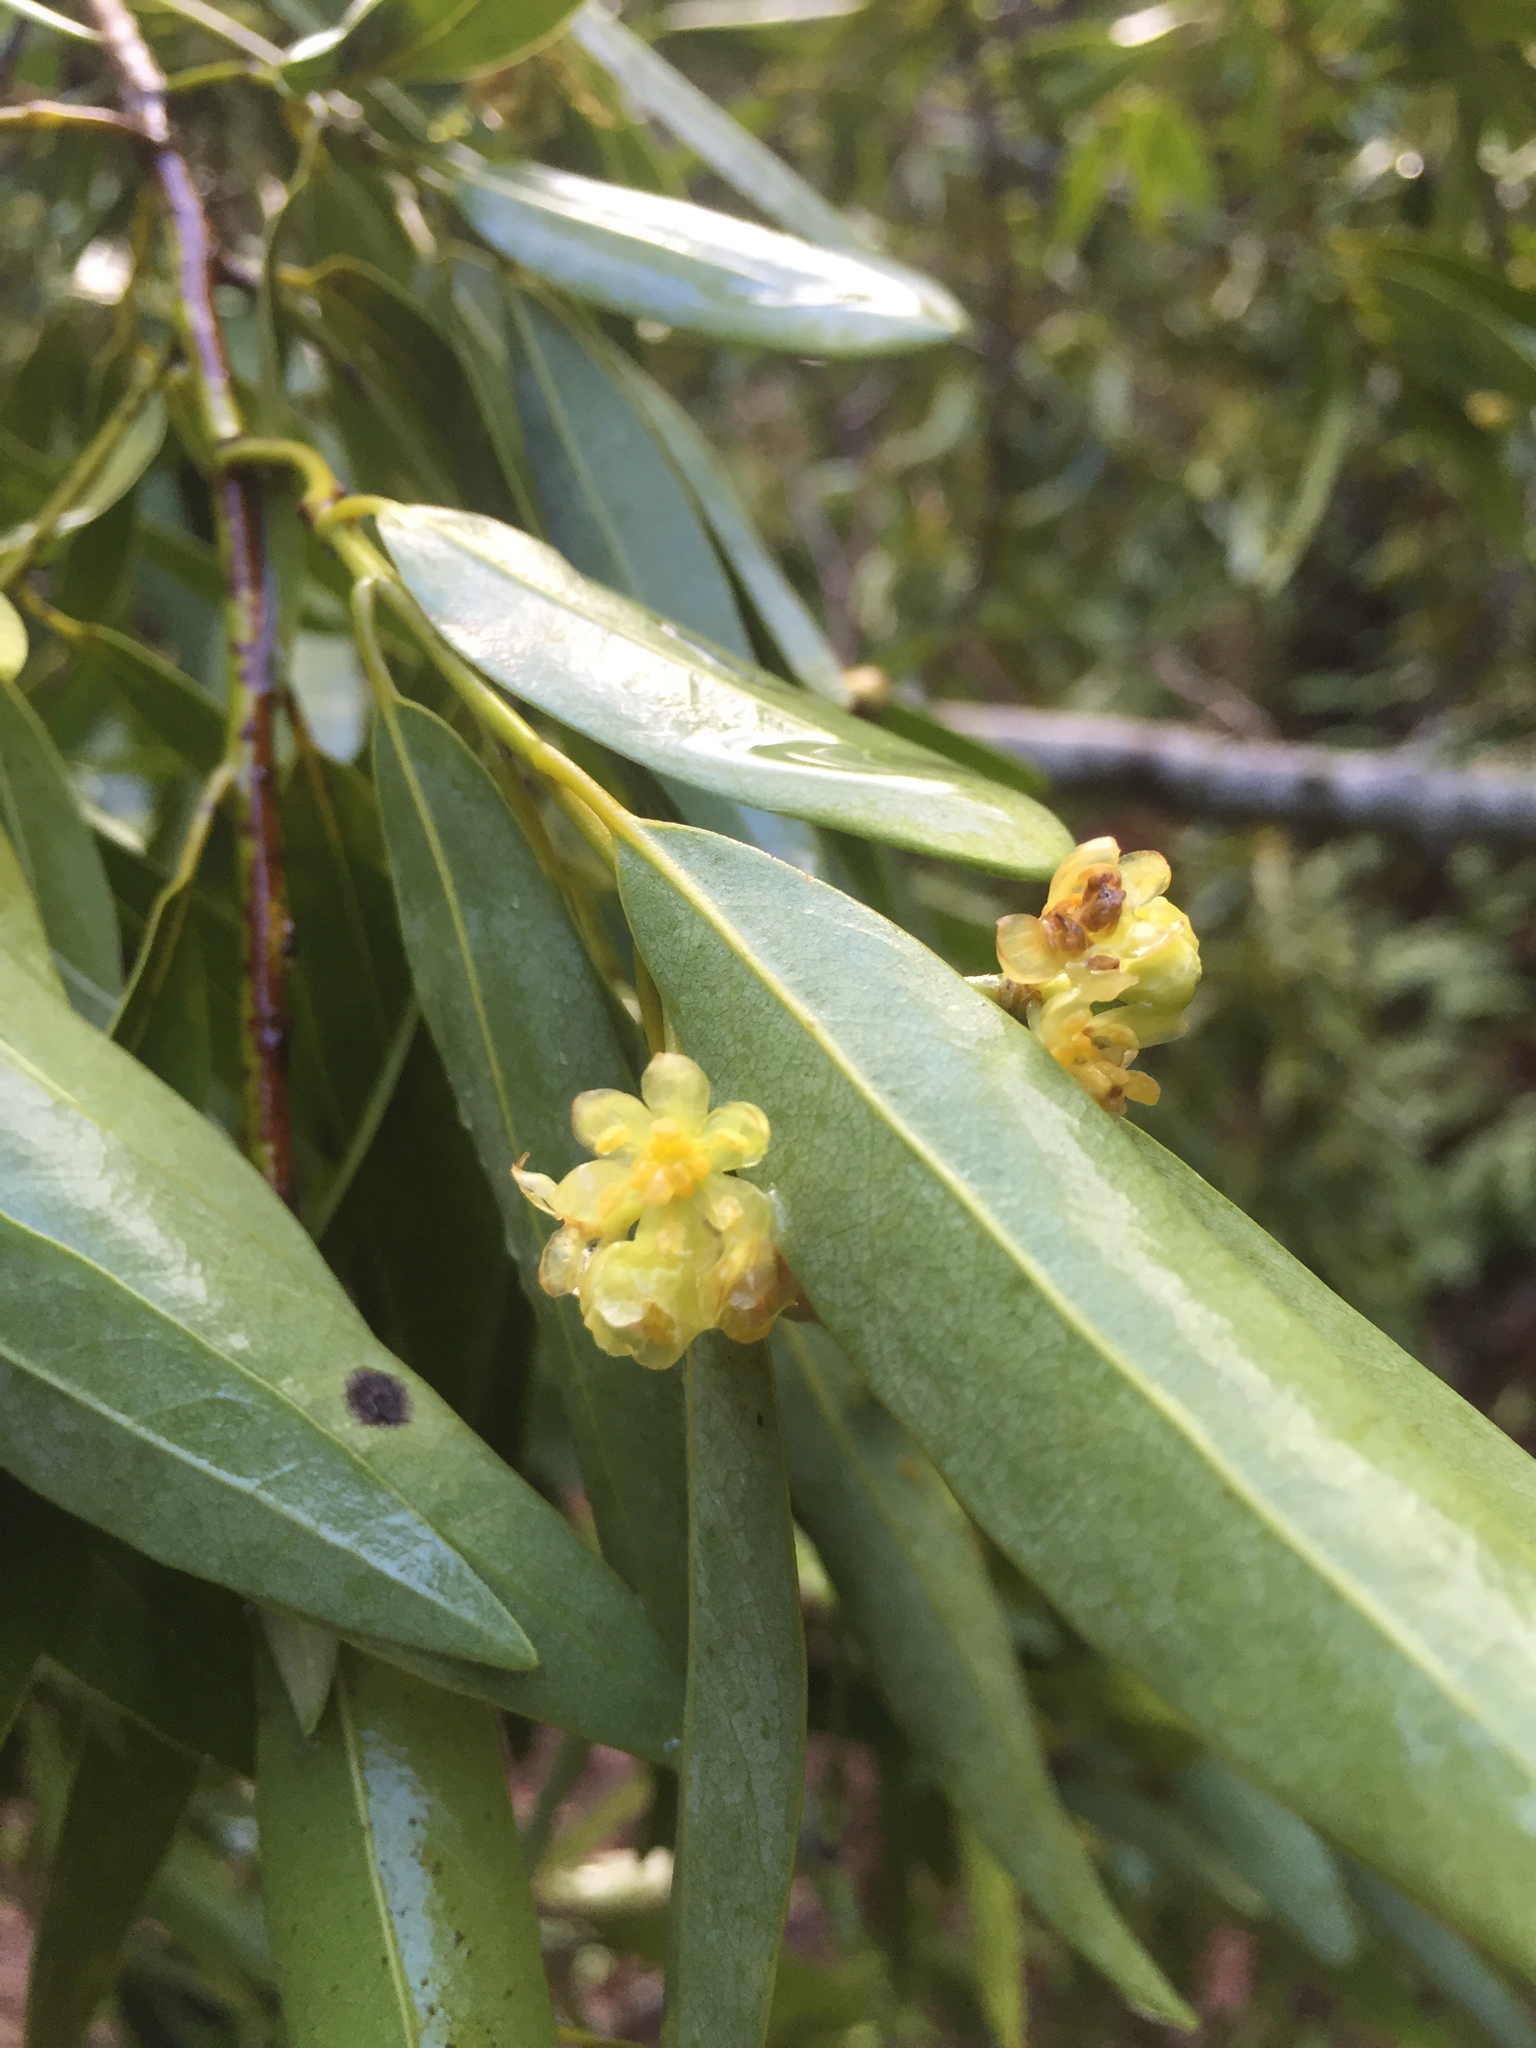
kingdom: Plantae
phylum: Tracheophyta
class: Magnoliopsida
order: Laurales
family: Lauraceae
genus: Umbellularia
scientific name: Umbellularia californica
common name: California bay
